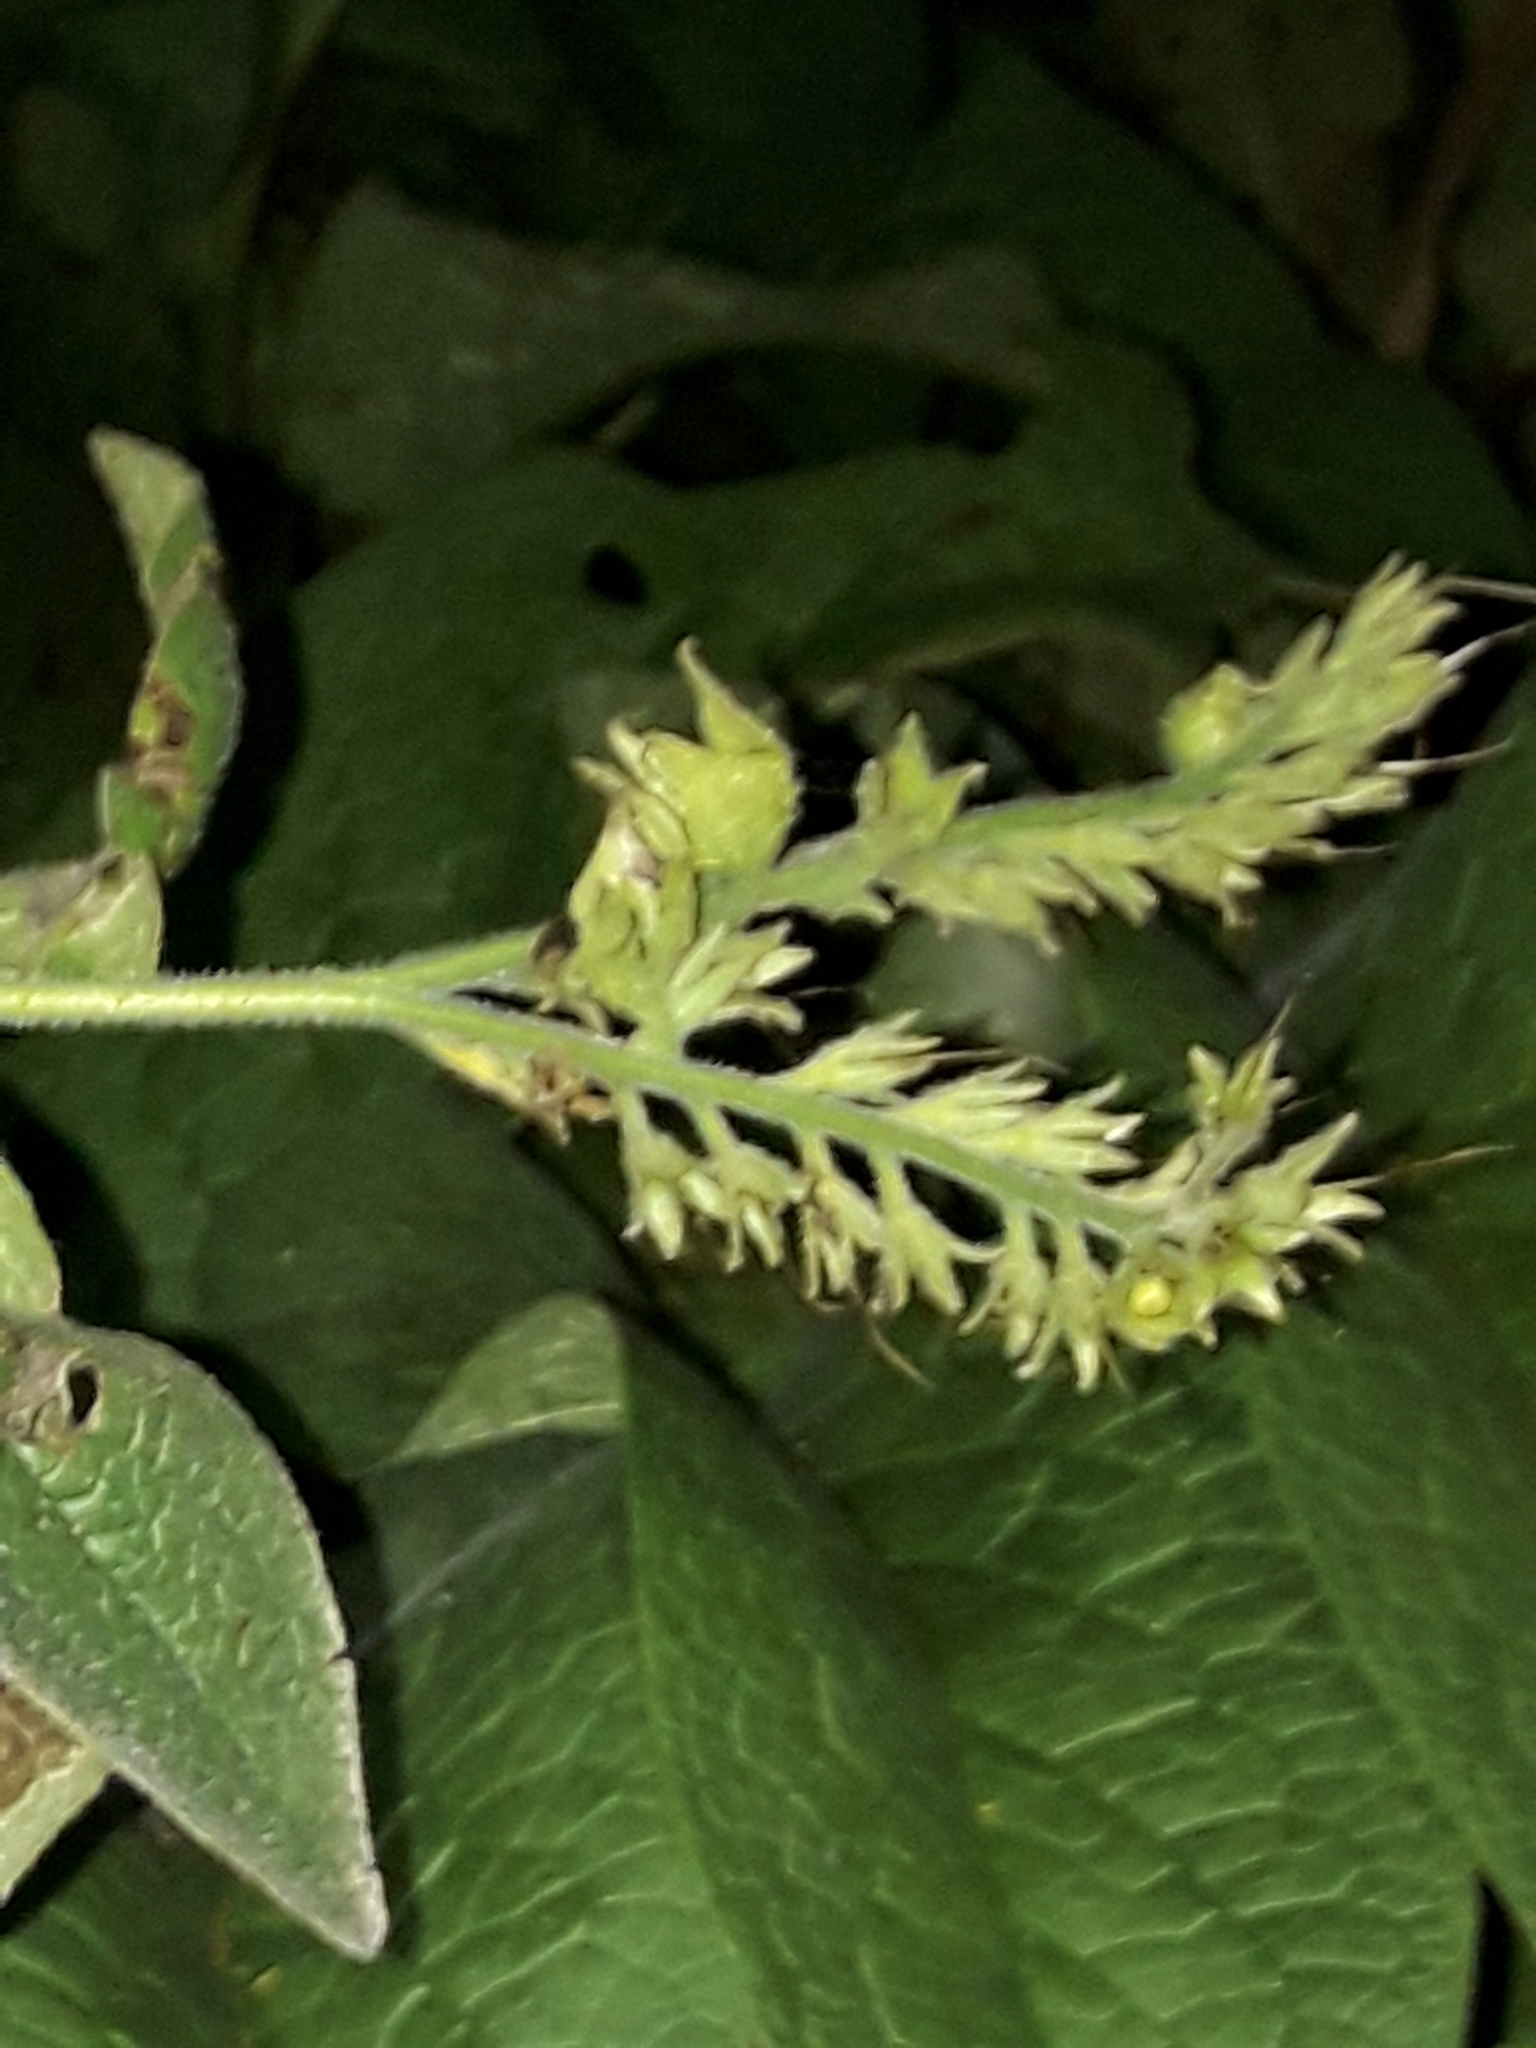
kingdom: Plantae
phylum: Tracheophyta
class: Magnoliopsida
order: Boraginales
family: Boraginaceae
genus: Symphytum
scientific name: Symphytum officinale
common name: Common comfrey
